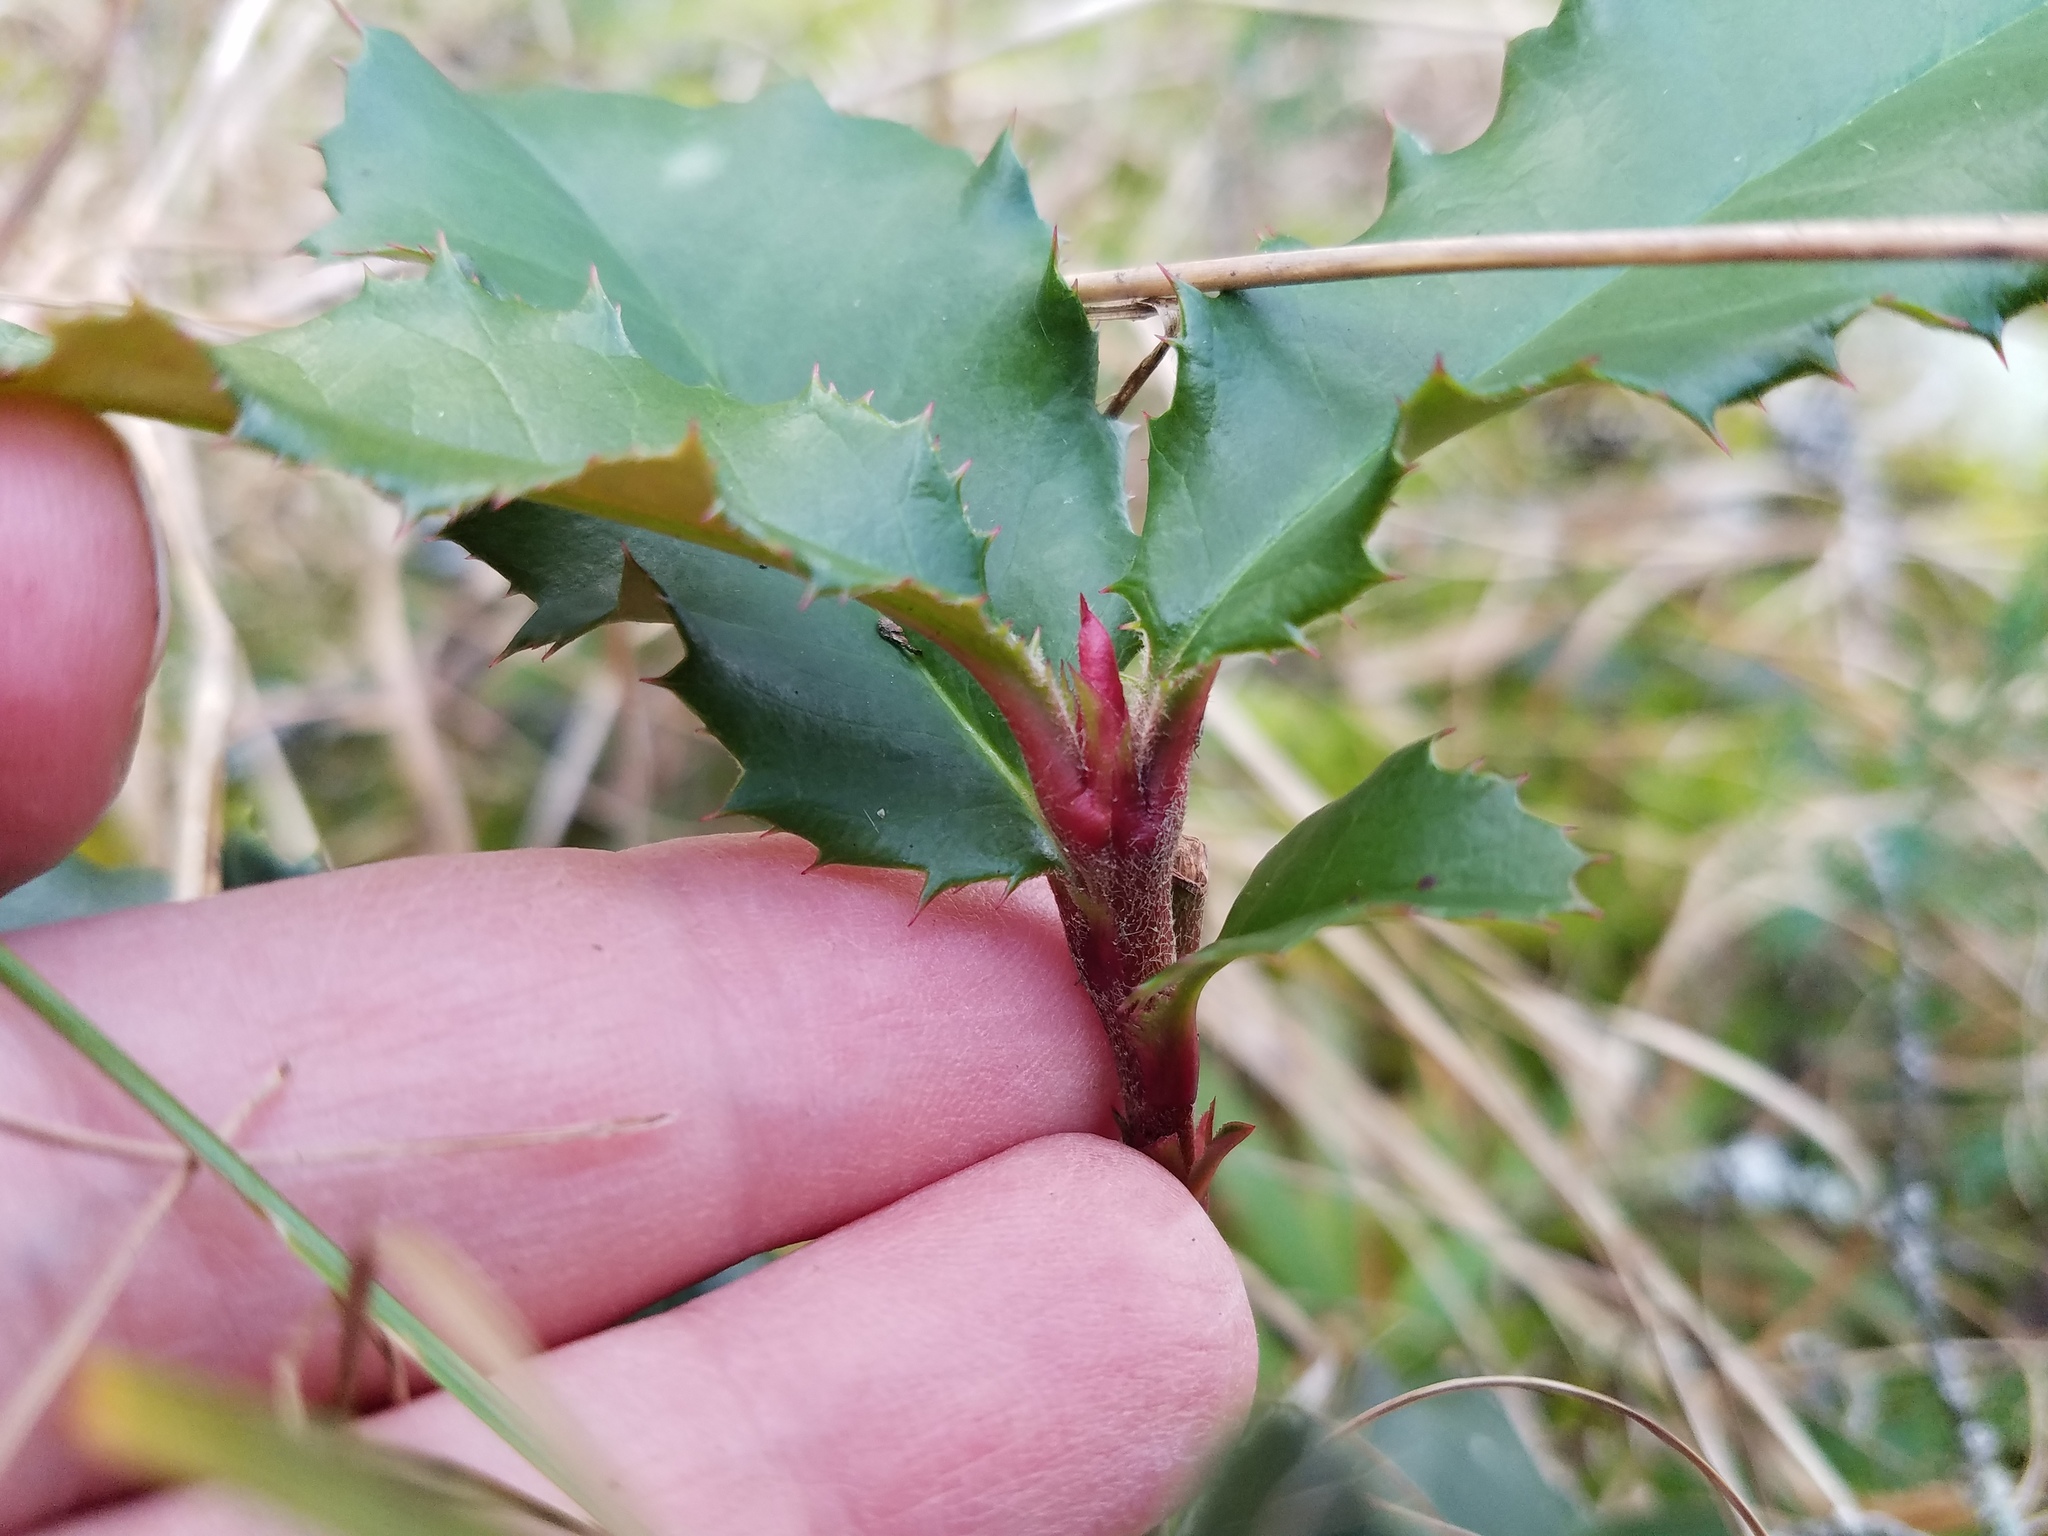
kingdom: Plantae
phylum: Tracheophyta
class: Magnoliopsida
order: Rosales
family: Rosaceae
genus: Photinia
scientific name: Photinia serratifolia
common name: Taiwanese photinia
